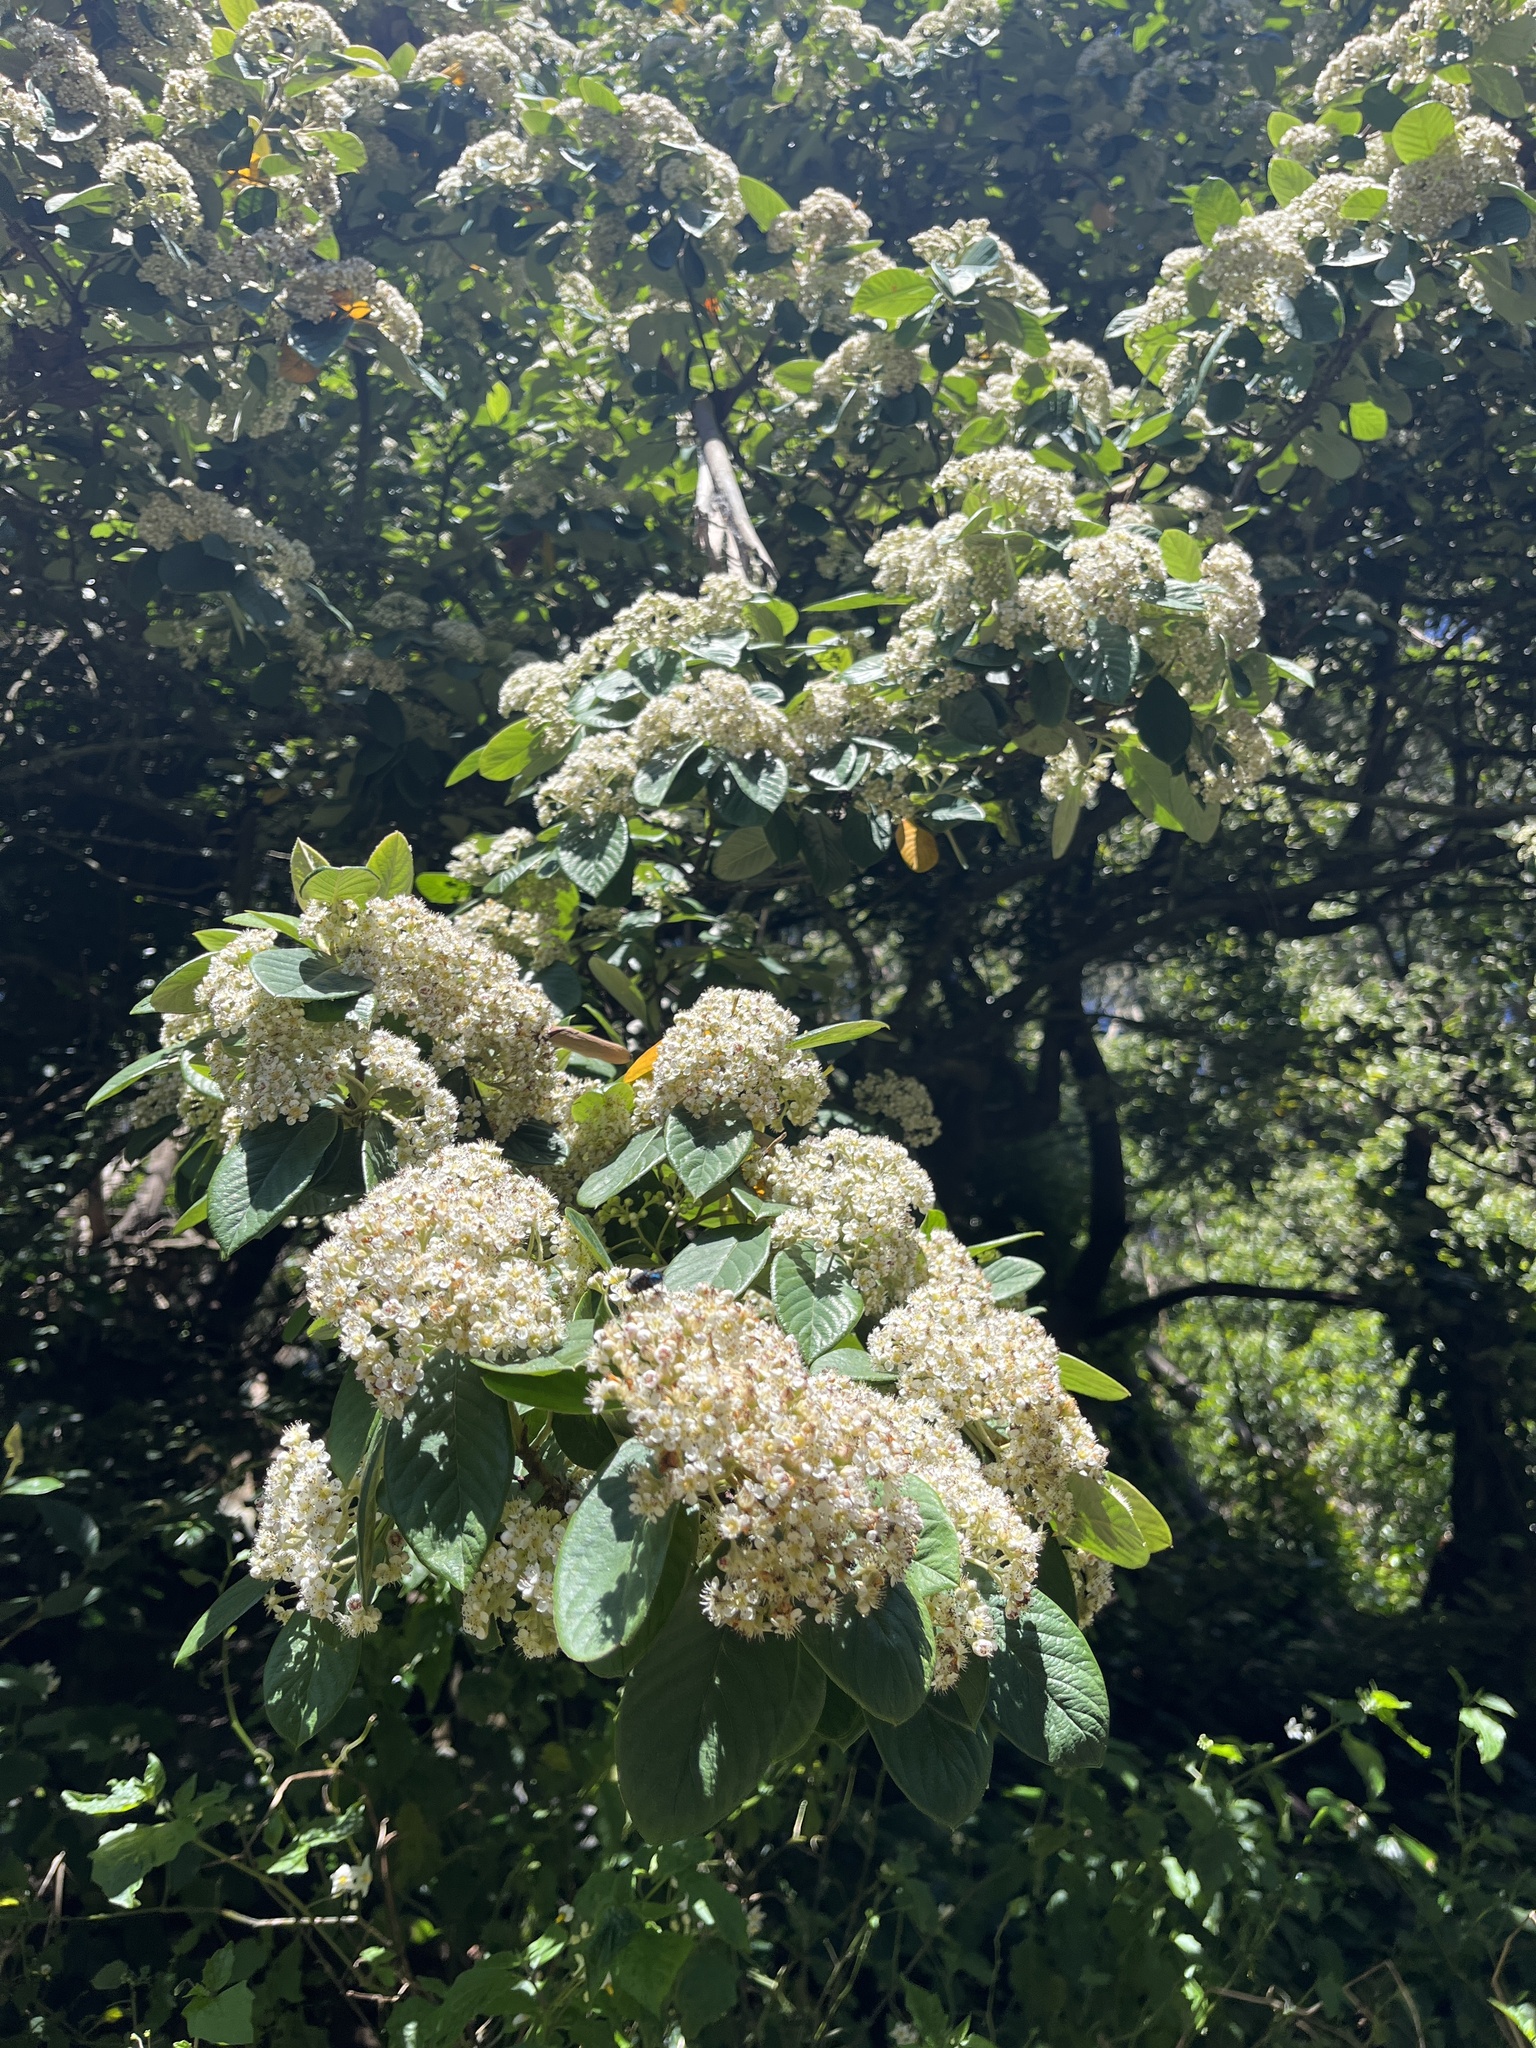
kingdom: Plantae
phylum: Tracheophyta
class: Magnoliopsida
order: Rosales
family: Rosaceae
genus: Cotoneaster
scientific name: Cotoneaster coriaceus
